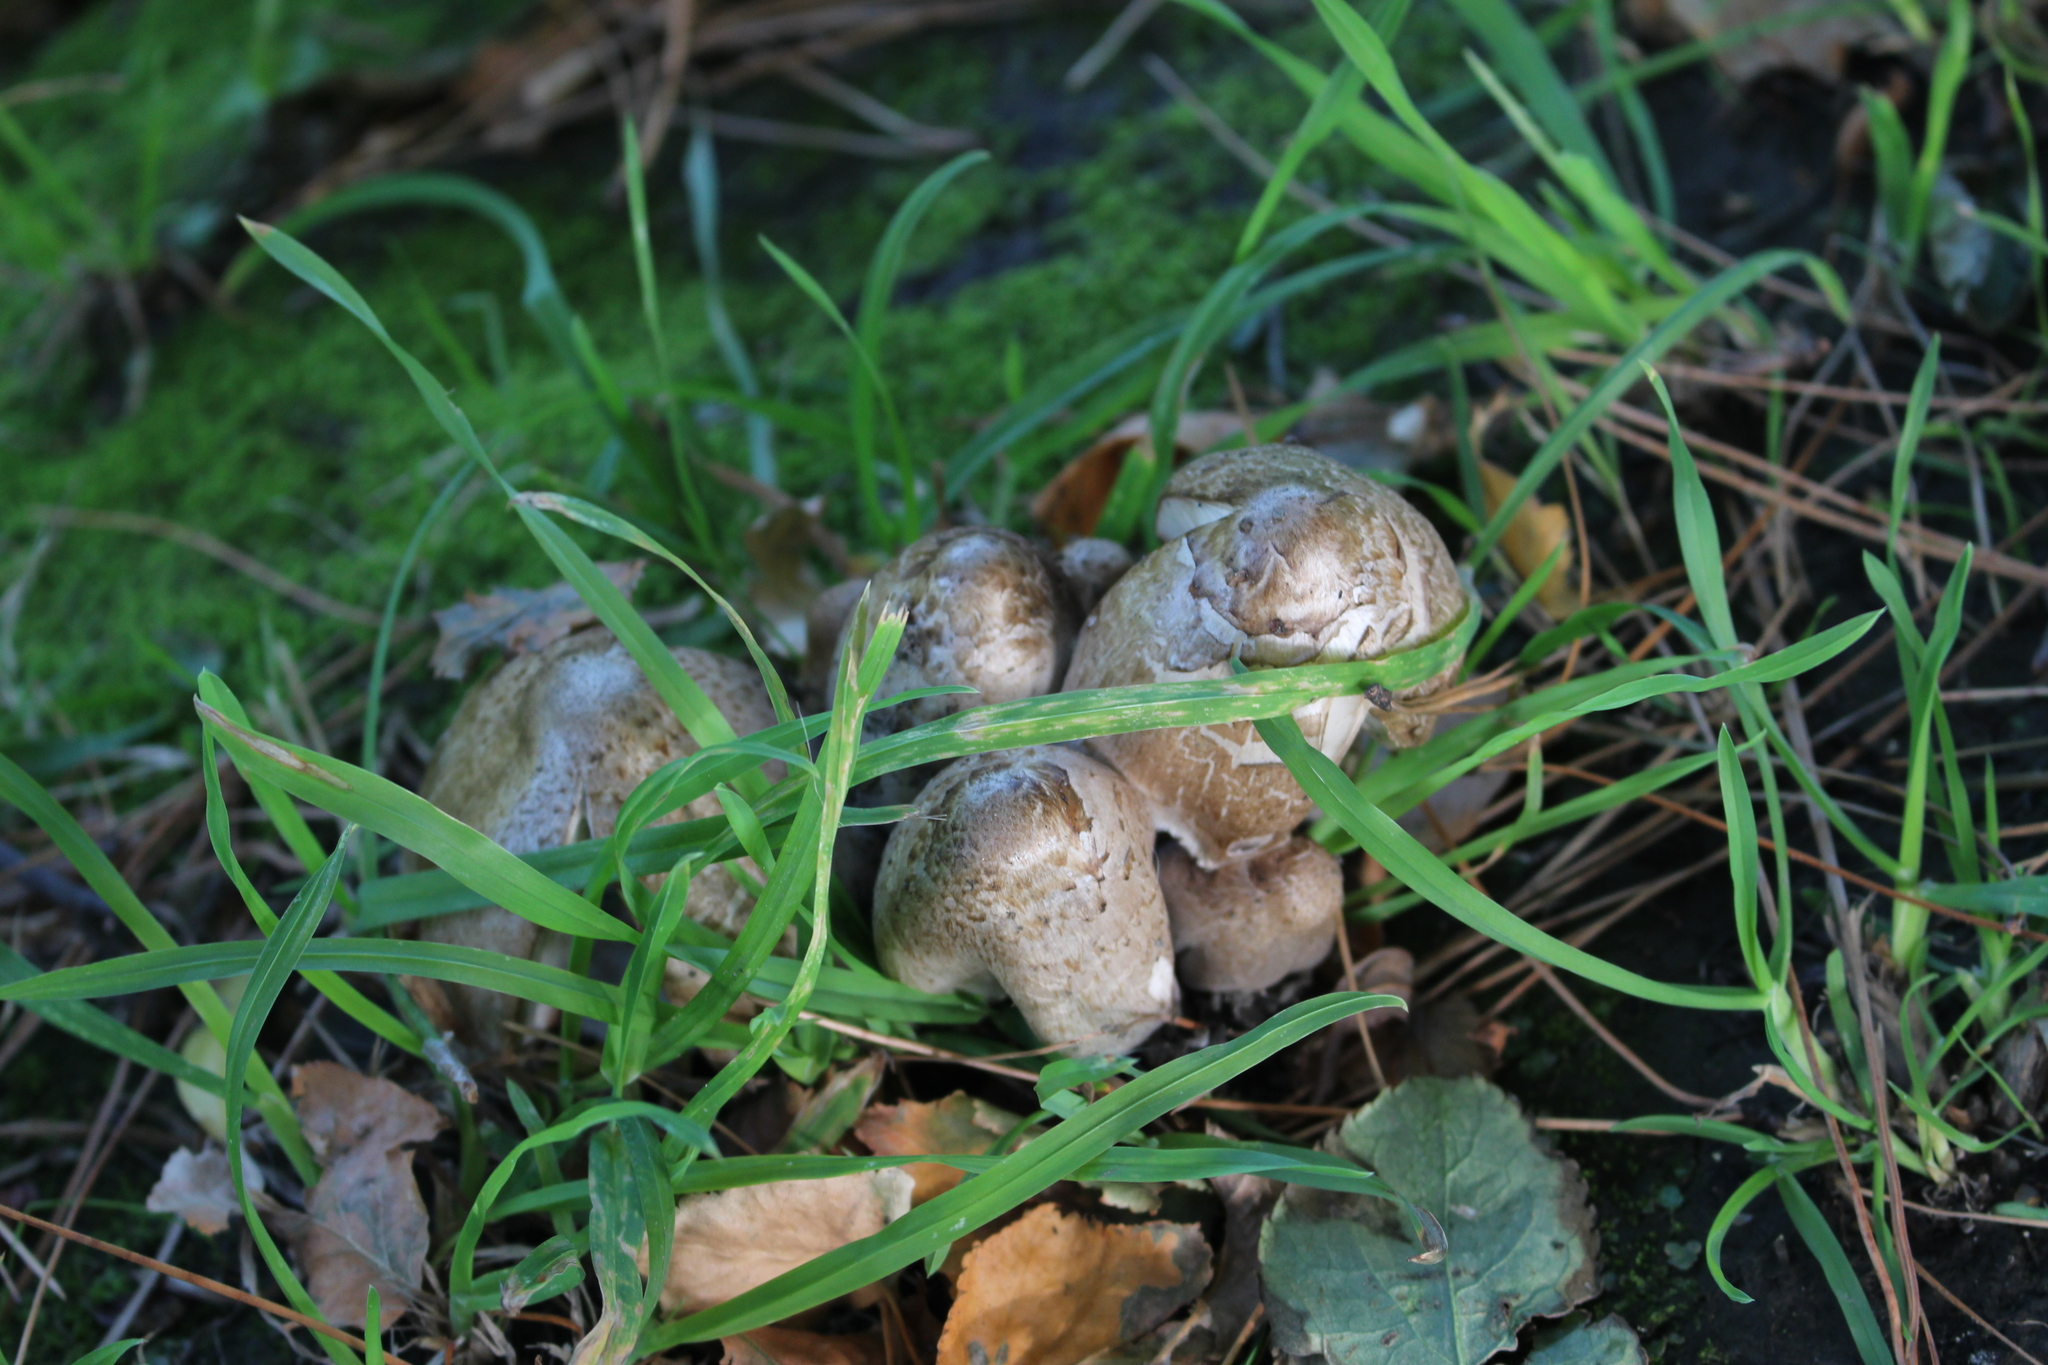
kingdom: Fungi
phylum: Basidiomycota
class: Agaricomycetes
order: Agaricales
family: Psathyrellaceae
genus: Coprinopsis
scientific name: Coprinopsis atramentaria
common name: Common ink-cap
